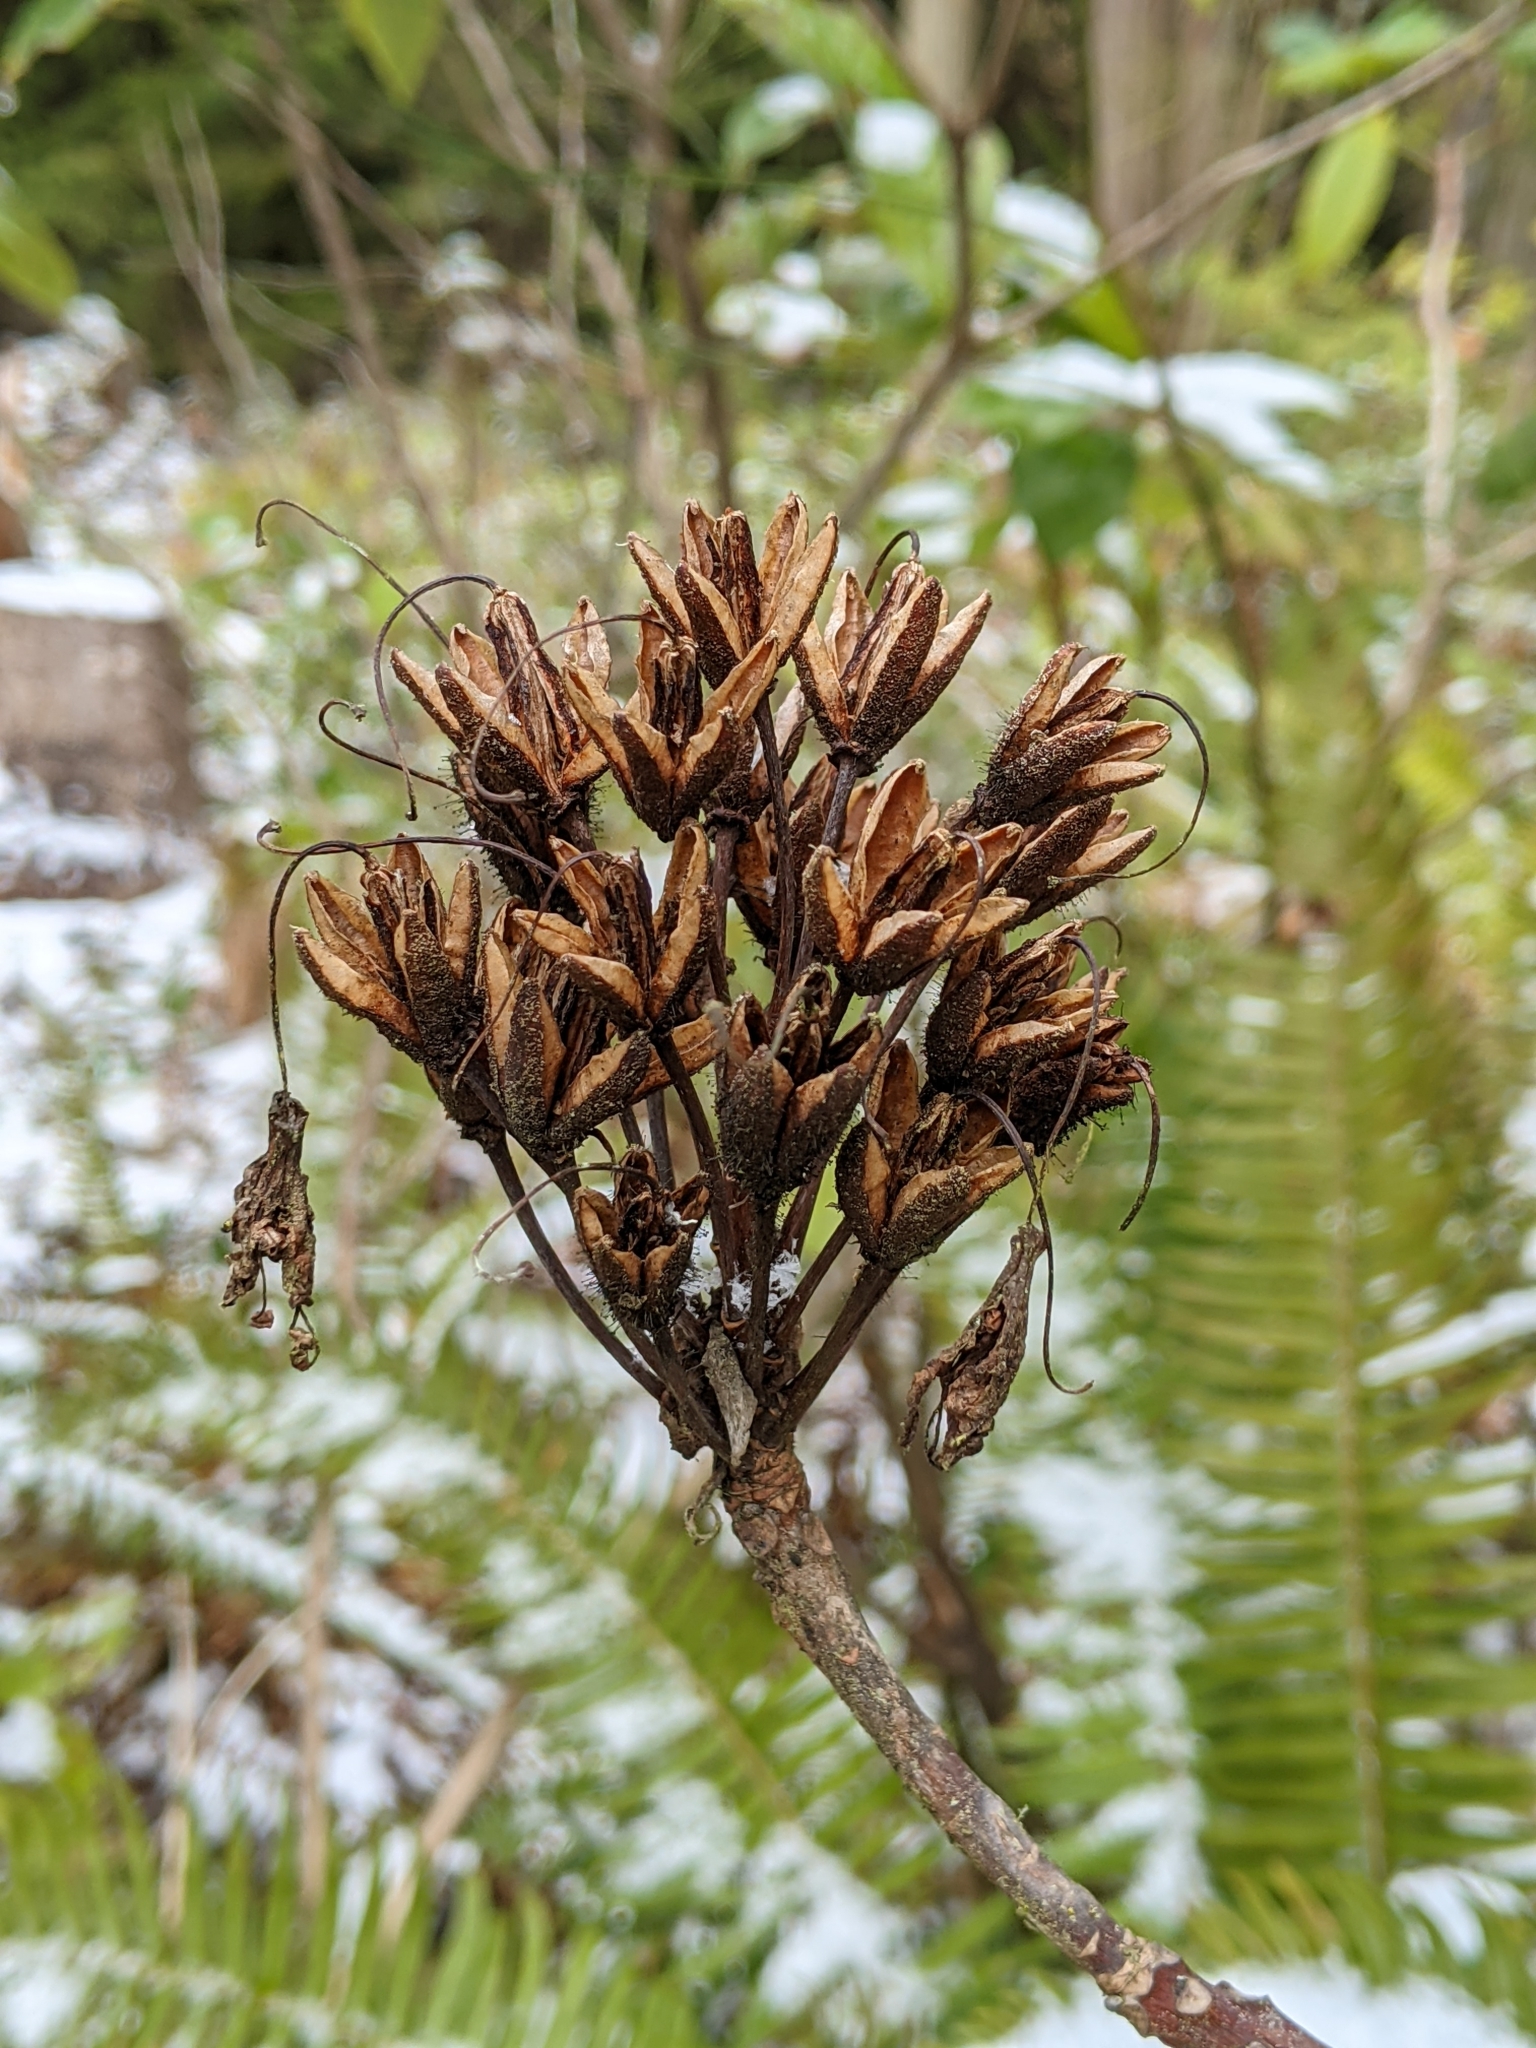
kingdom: Plantae
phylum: Tracheophyta
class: Magnoliopsida
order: Ericales
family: Ericaceae
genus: Rhododendron
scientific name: Rhododendron macrophyllum
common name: California rose bay
